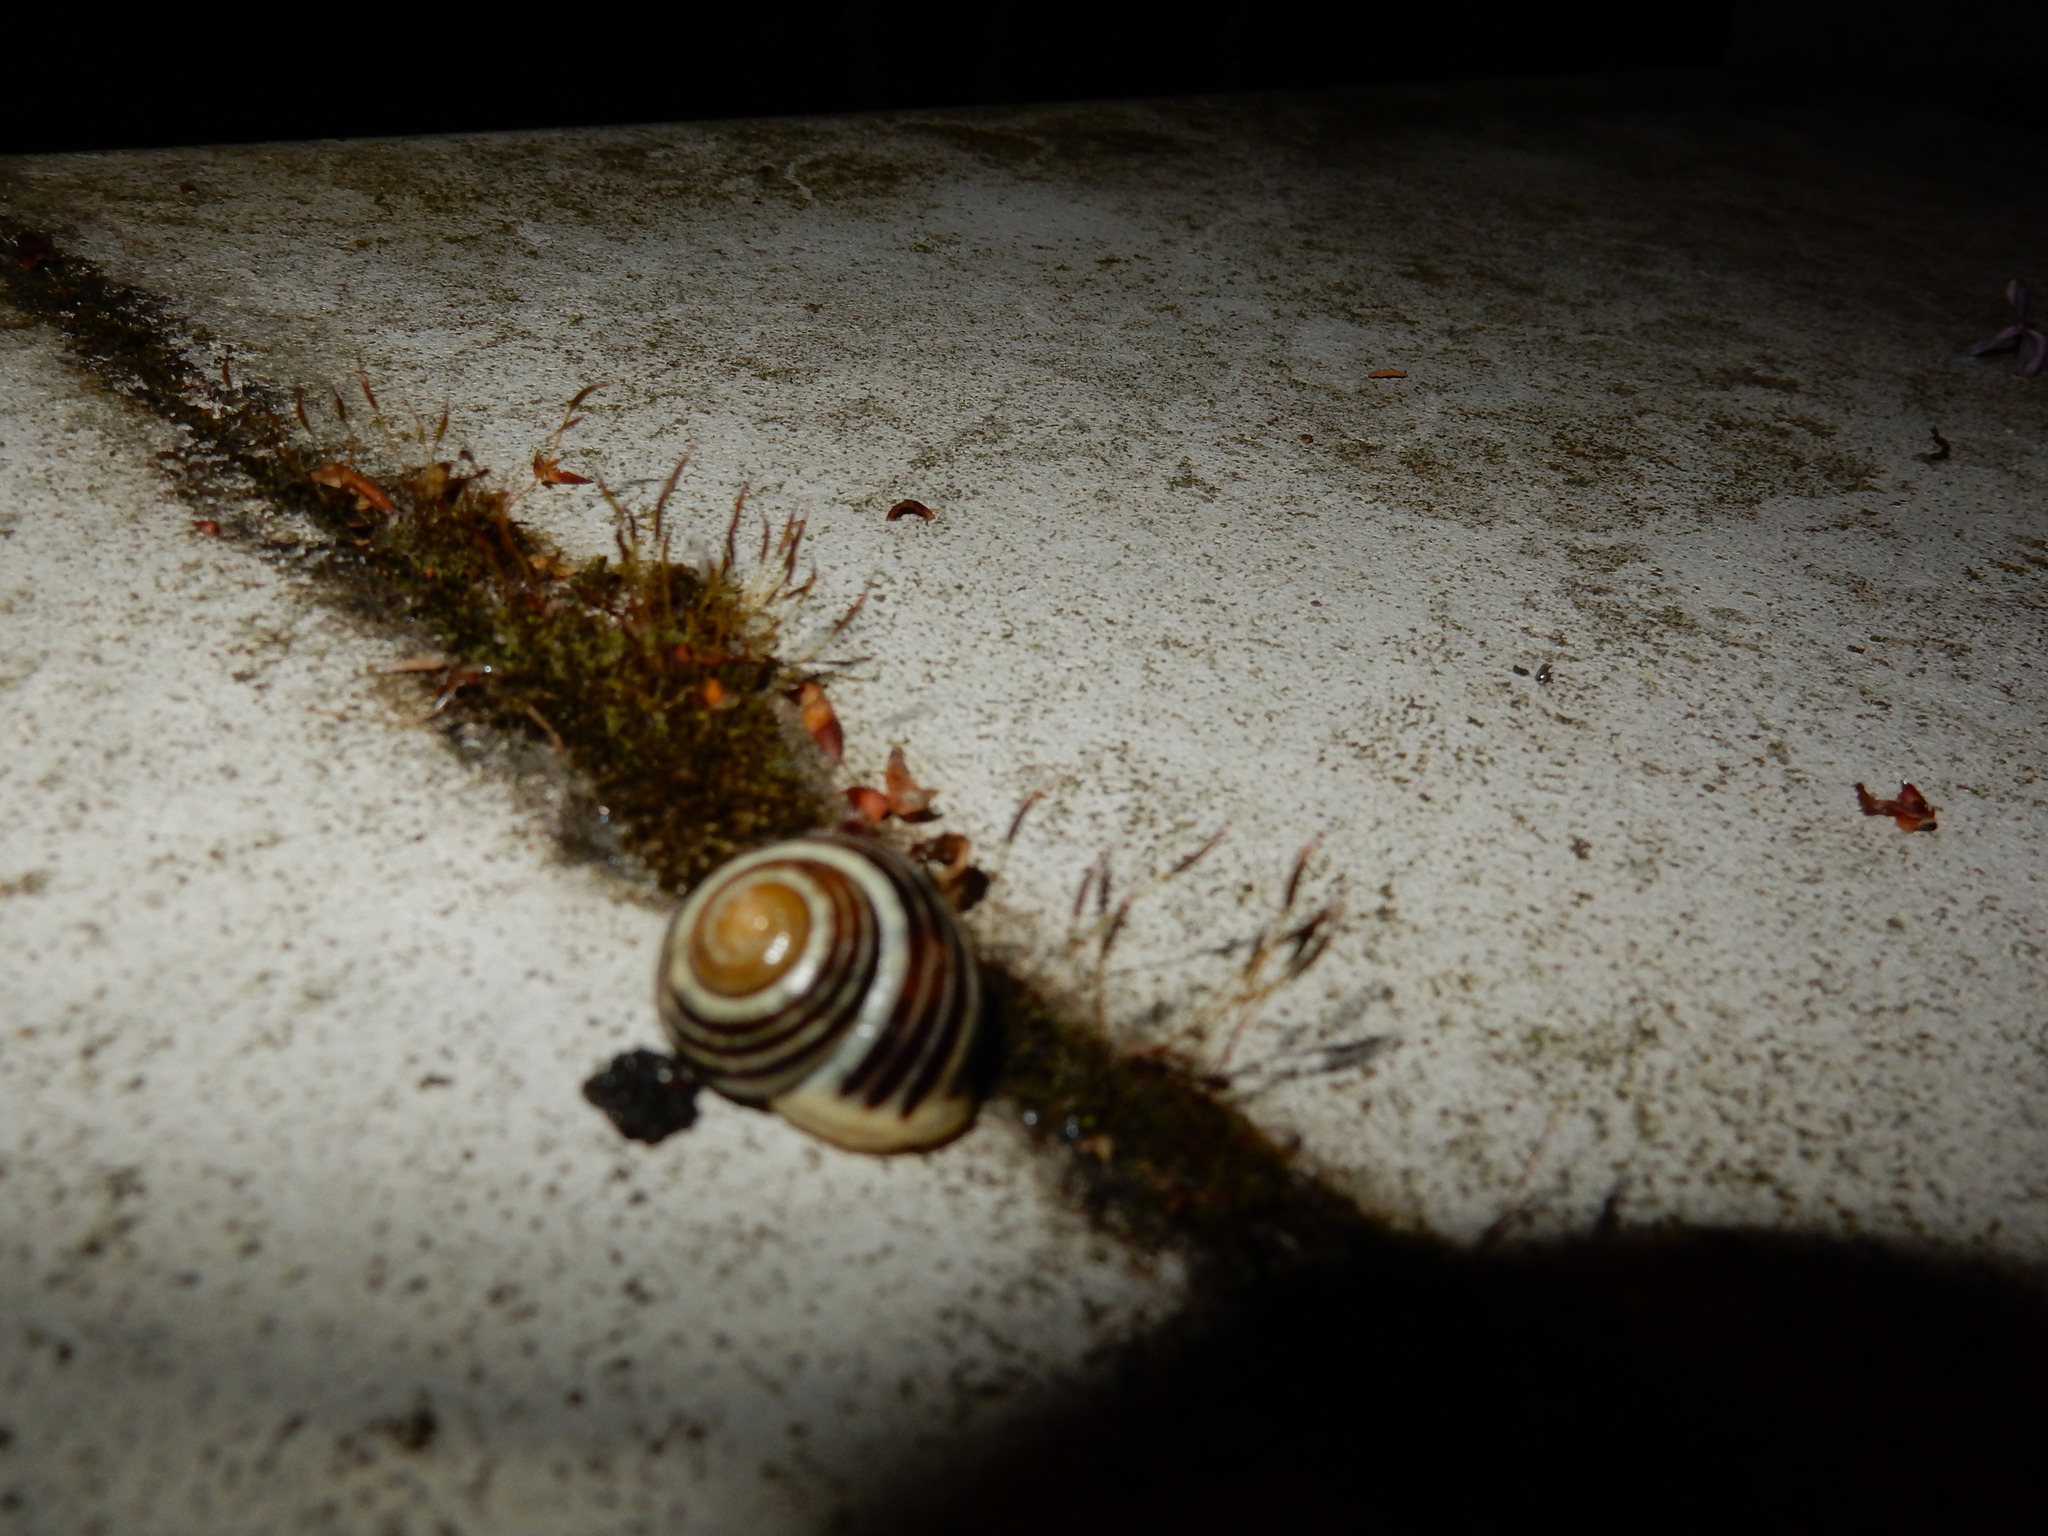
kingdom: Animalia
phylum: Mollusca
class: Gastropoda
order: Stylommatophora
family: Helicidae
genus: Cepaea
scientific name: Cepaea hortensis
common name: White-lip gardensnail
